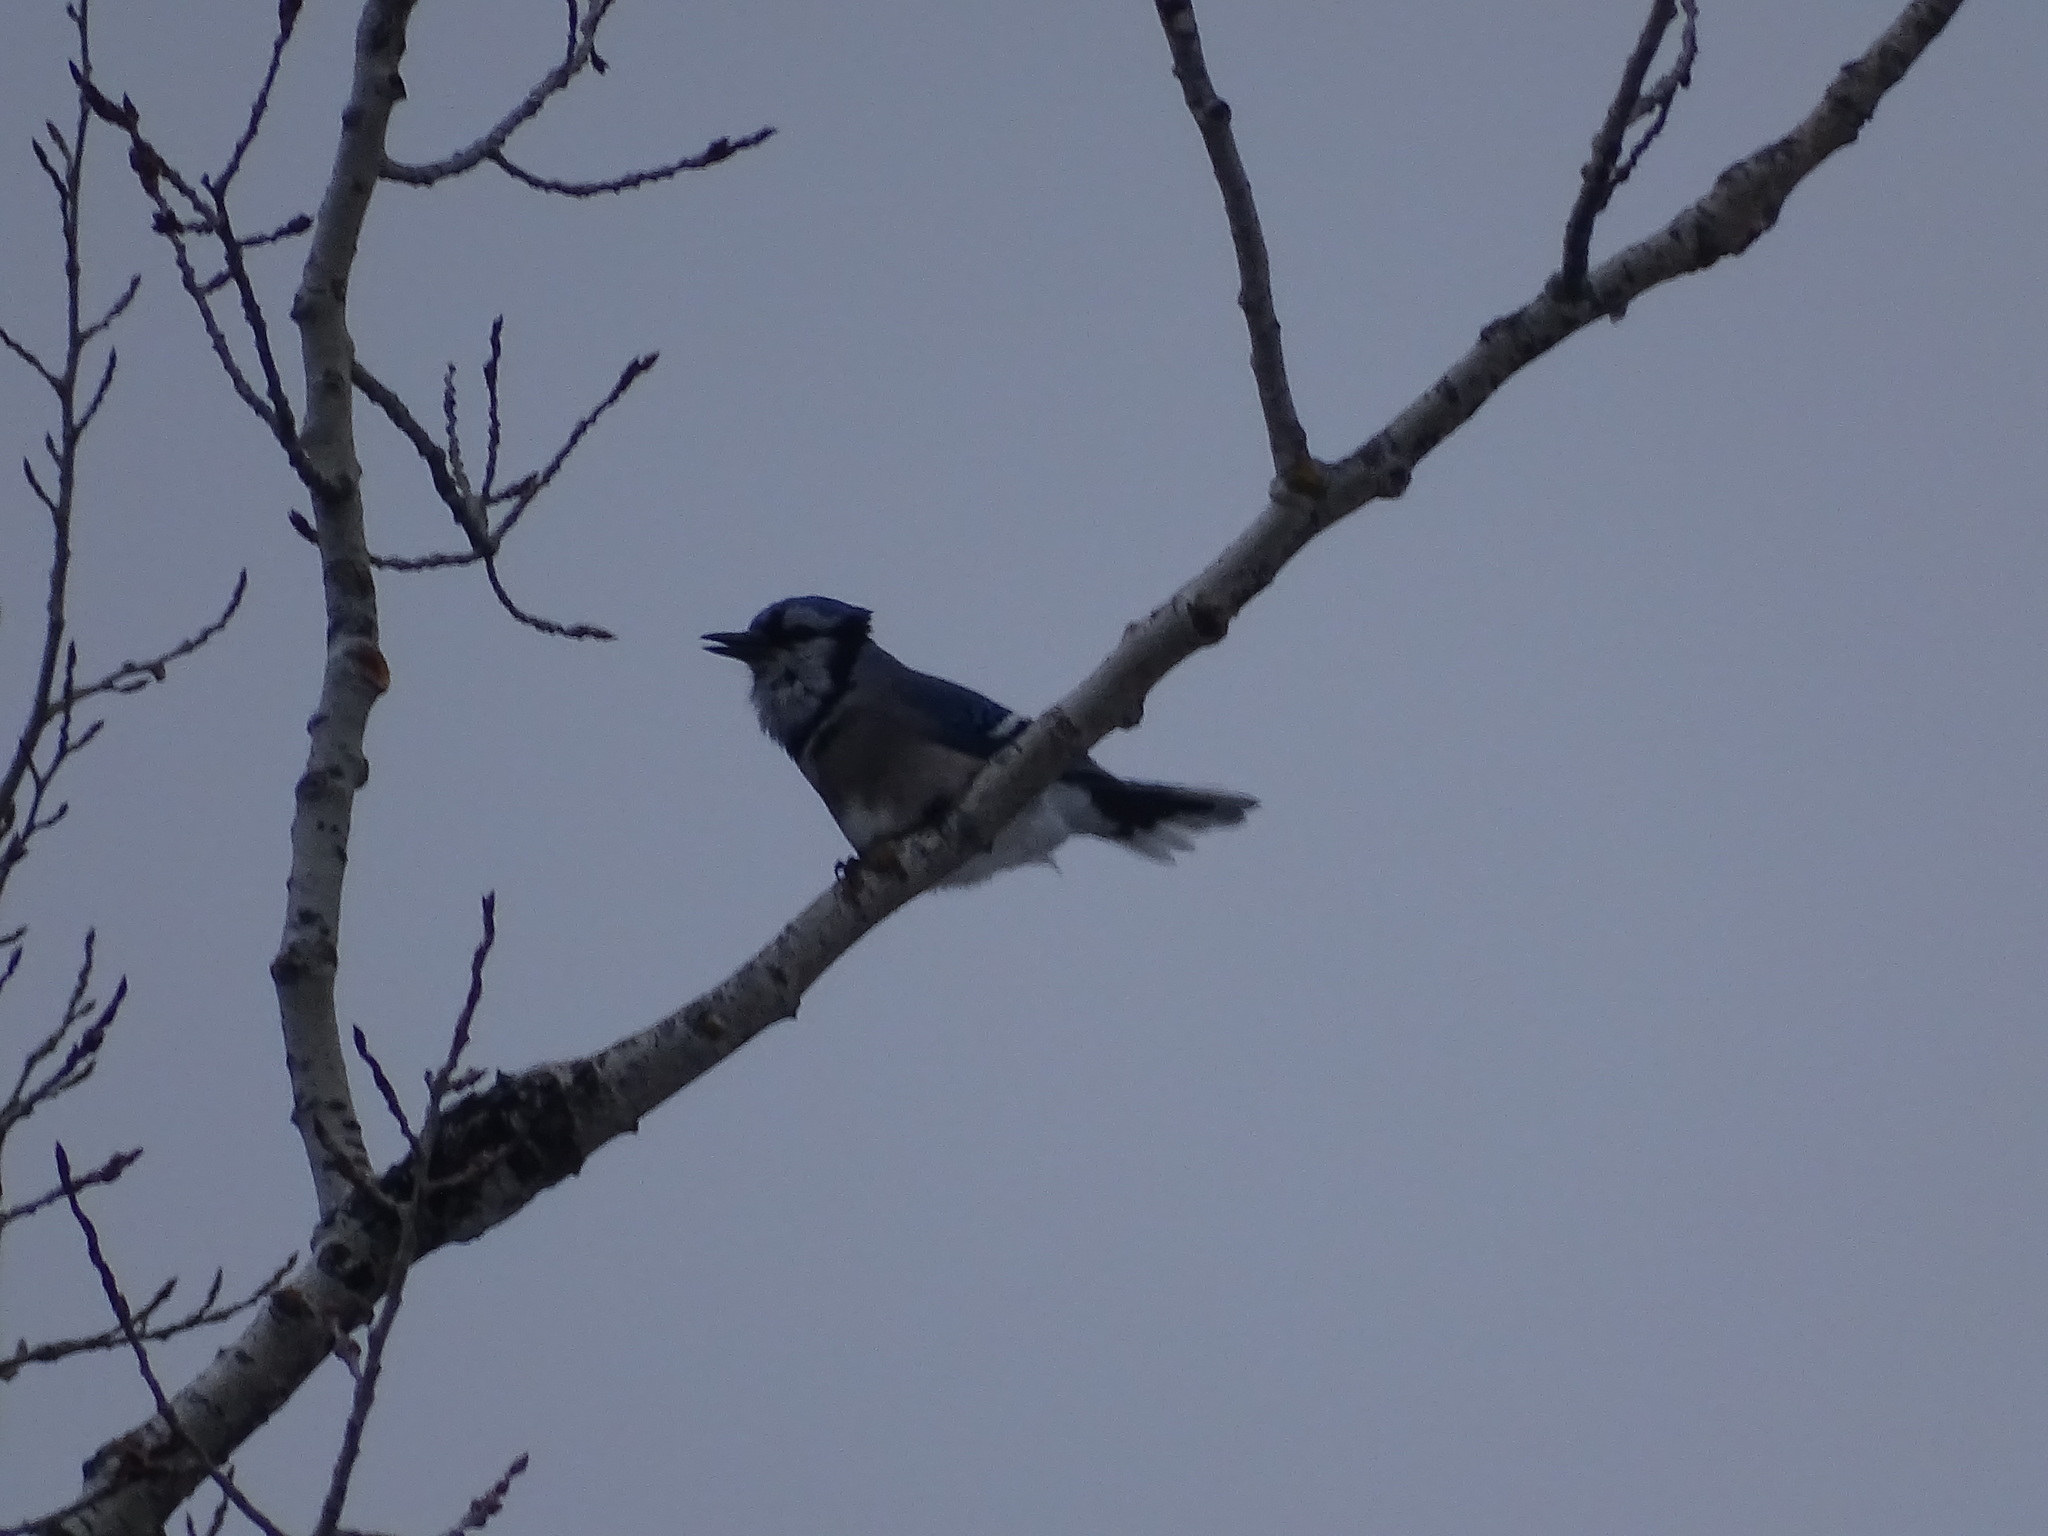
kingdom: Animalia
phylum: Chordata
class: Aves
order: Passeriformes
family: Corvidae
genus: Cyanocitta
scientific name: Cyanocitta cristata
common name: Blue jay
